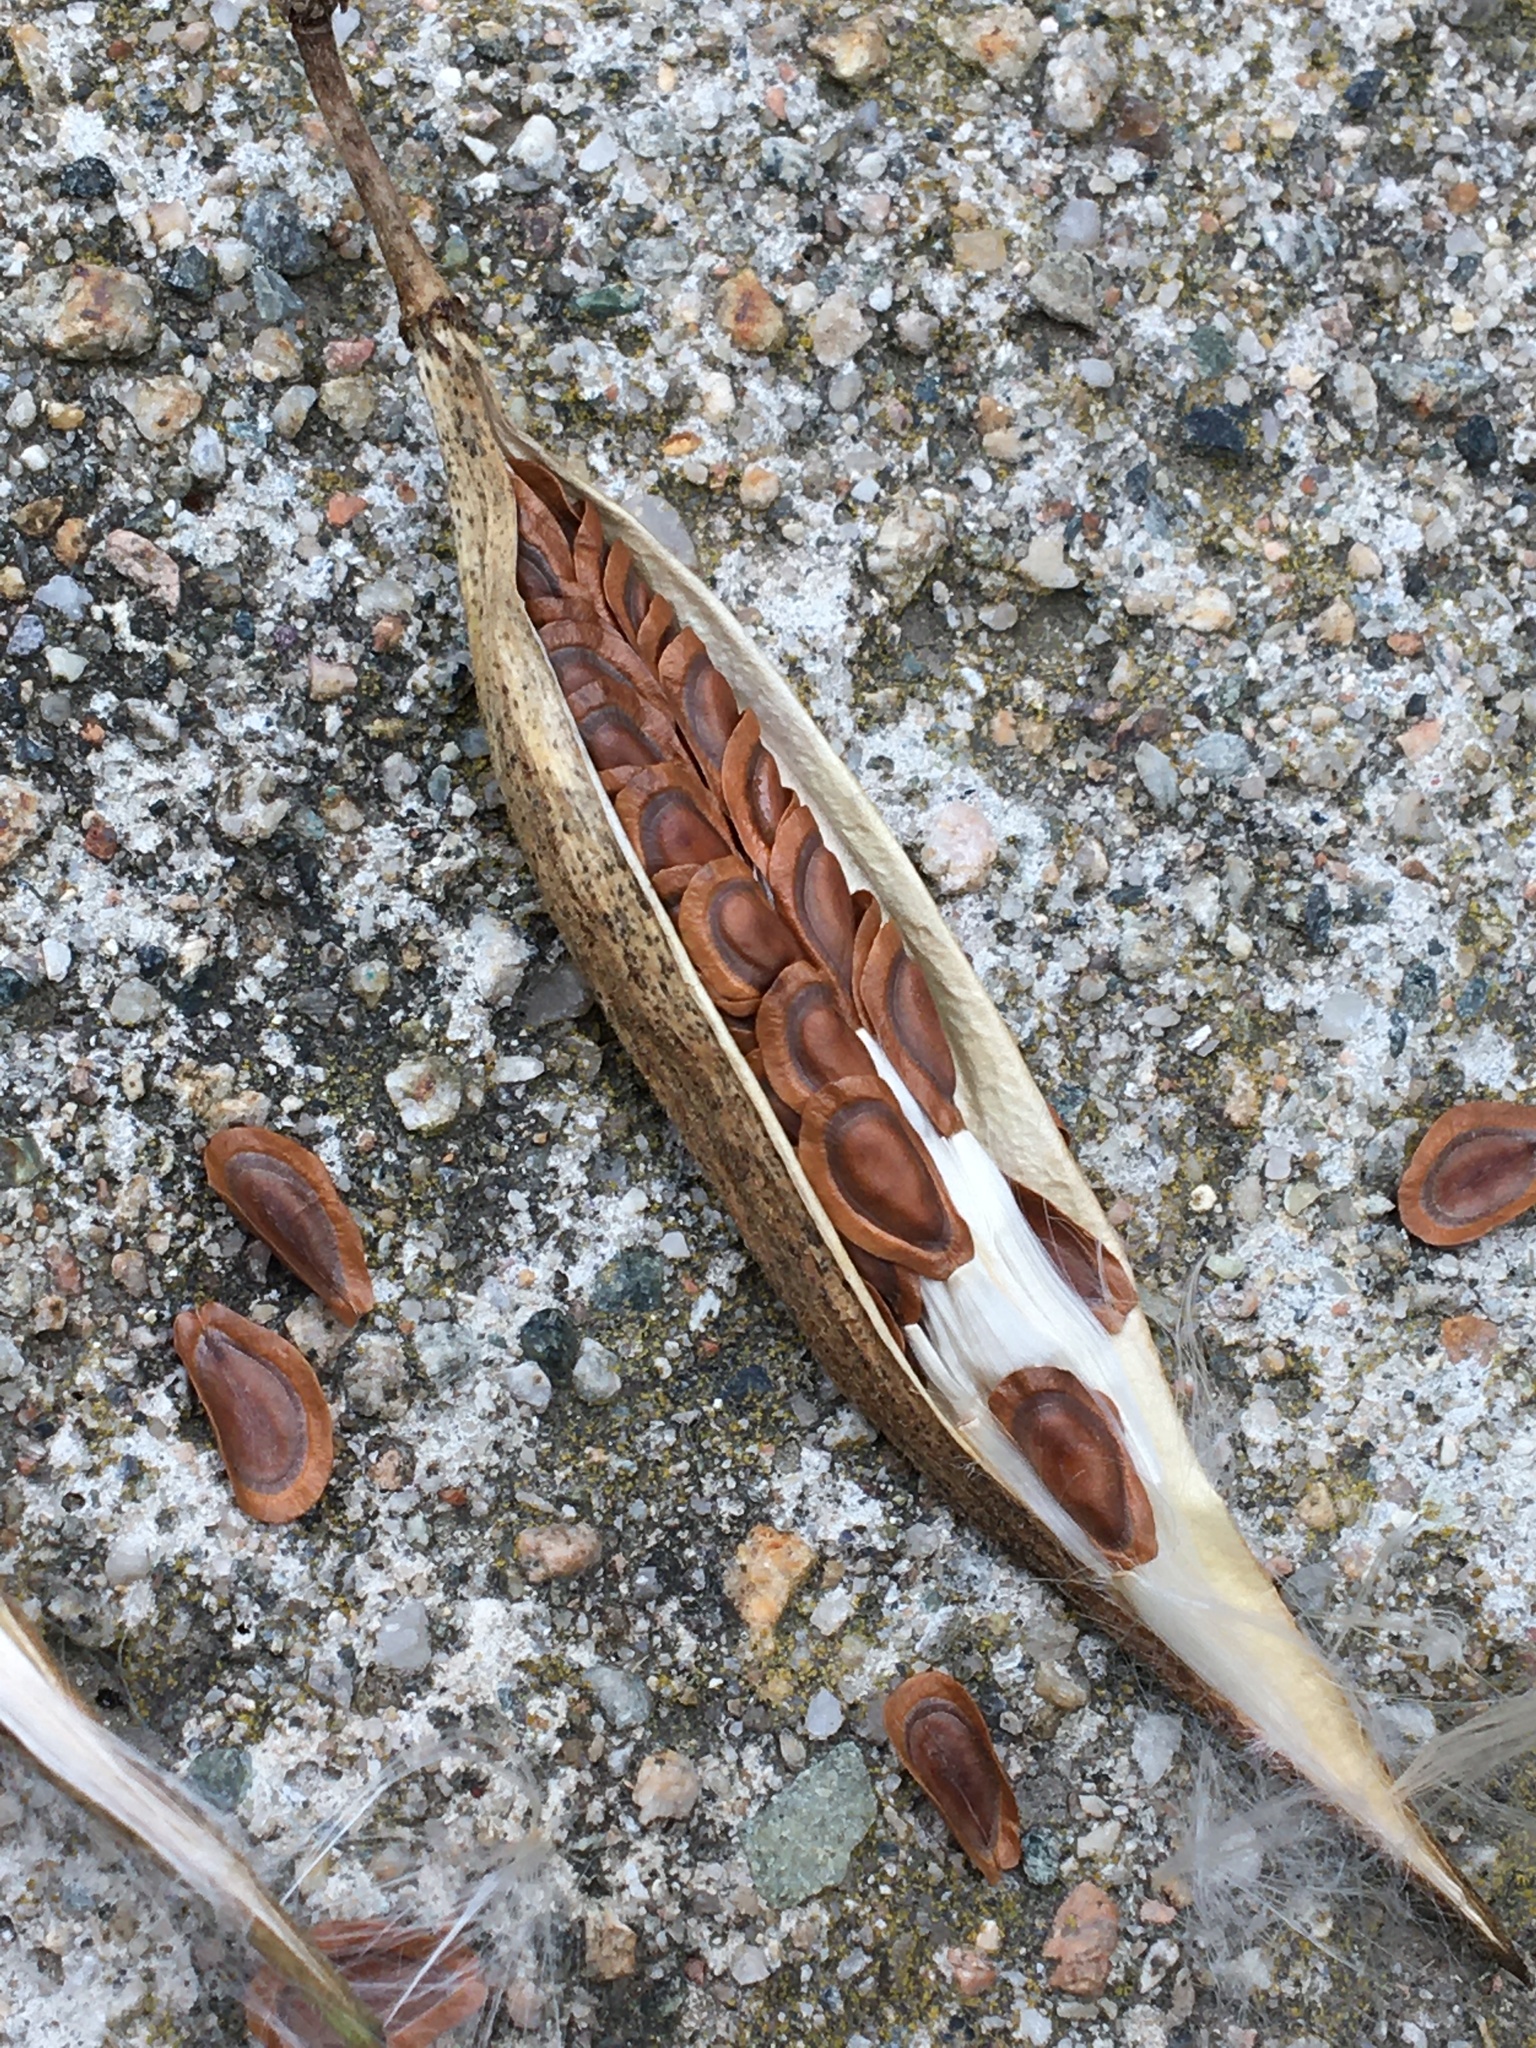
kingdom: Plantae
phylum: Tracheophyta
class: Magnoliopsida
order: Gentianales
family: Apocynaceae
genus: Asclepias
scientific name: Asclepias incarnata
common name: Swamp milkweed
